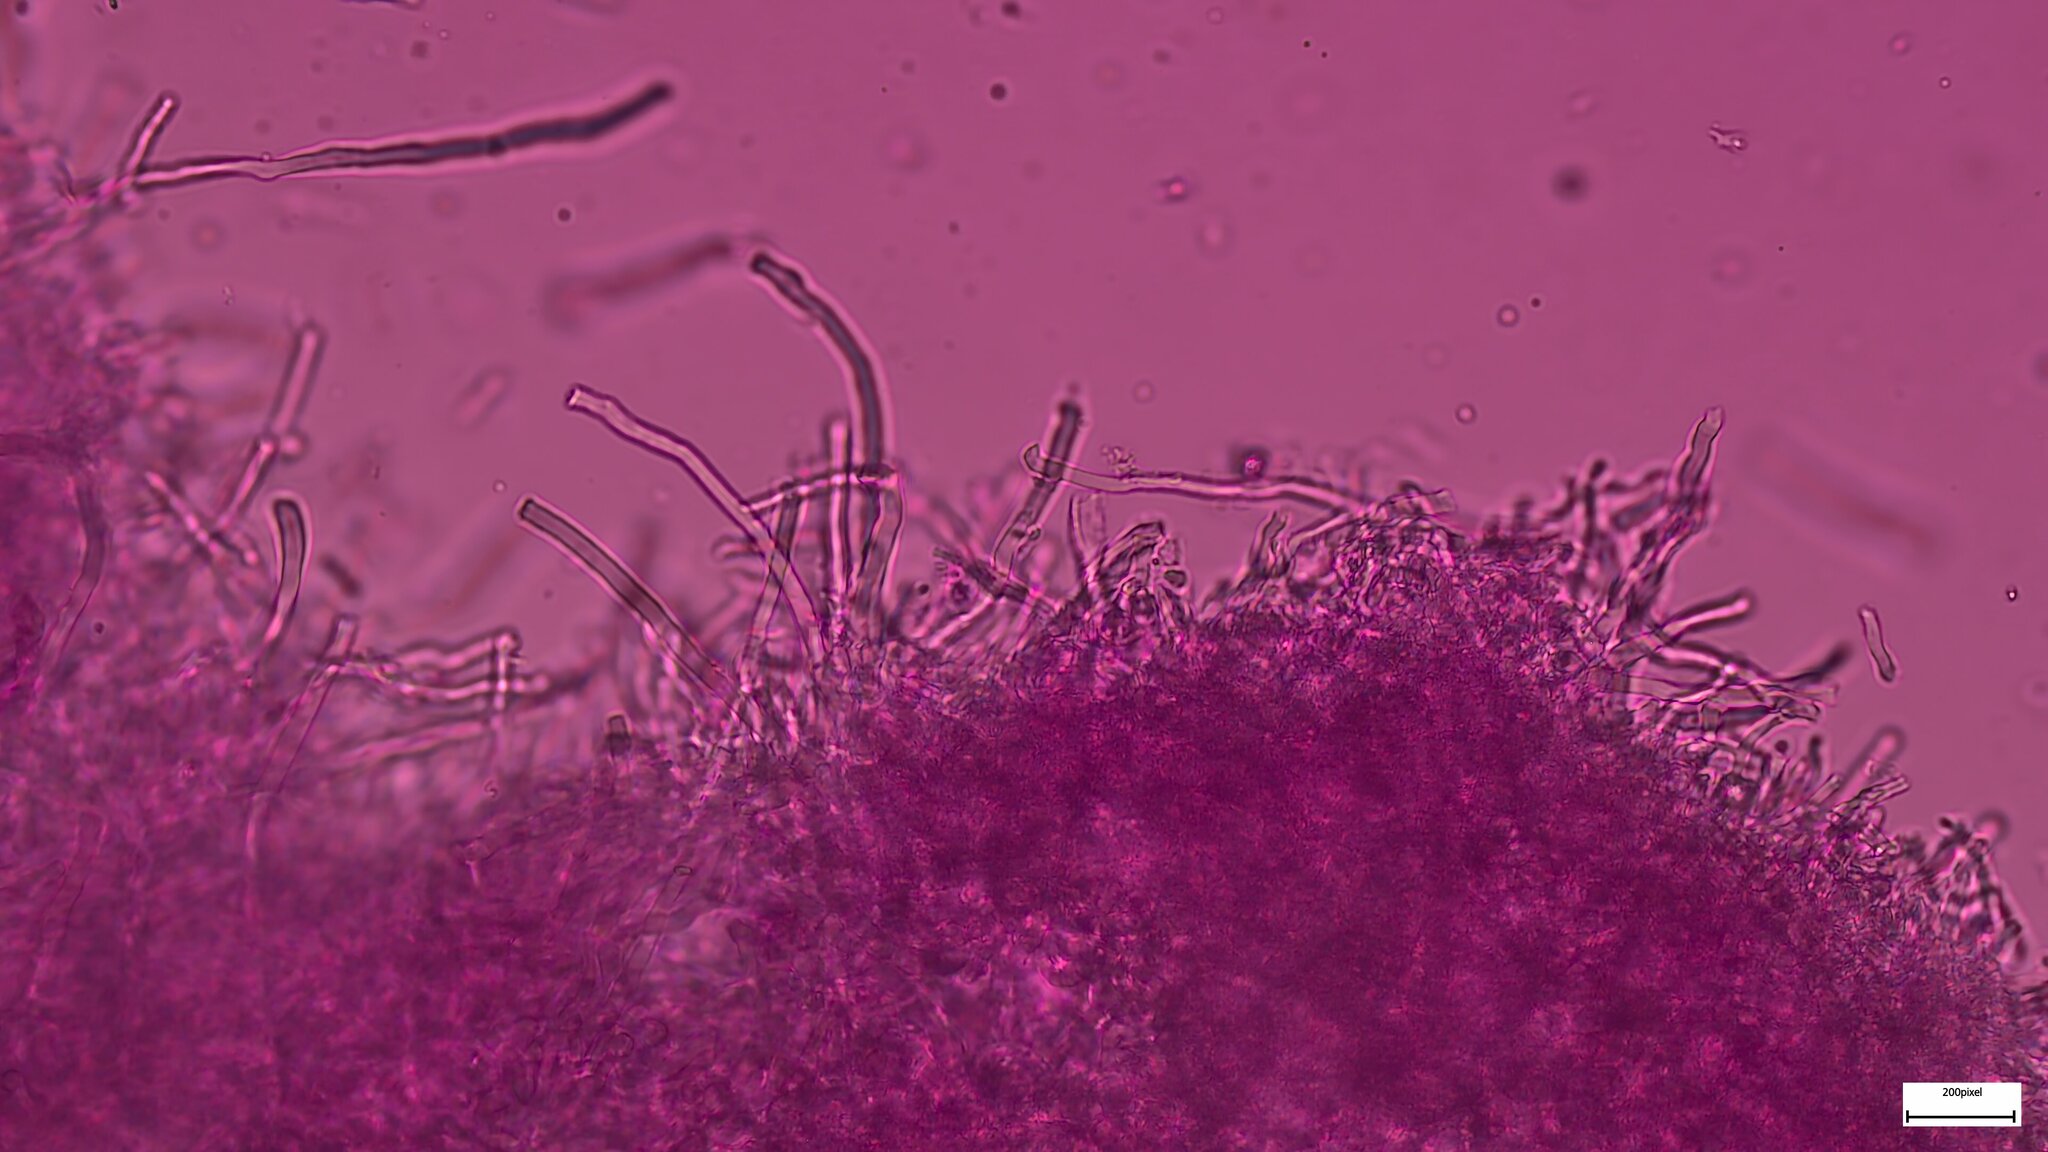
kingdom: Fungi
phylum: Basidiomycota
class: Agaricomycetes
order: Polyporales
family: Polyporaceae
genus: Trametes
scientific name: Trametes hirsuta
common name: Hairy bracket
